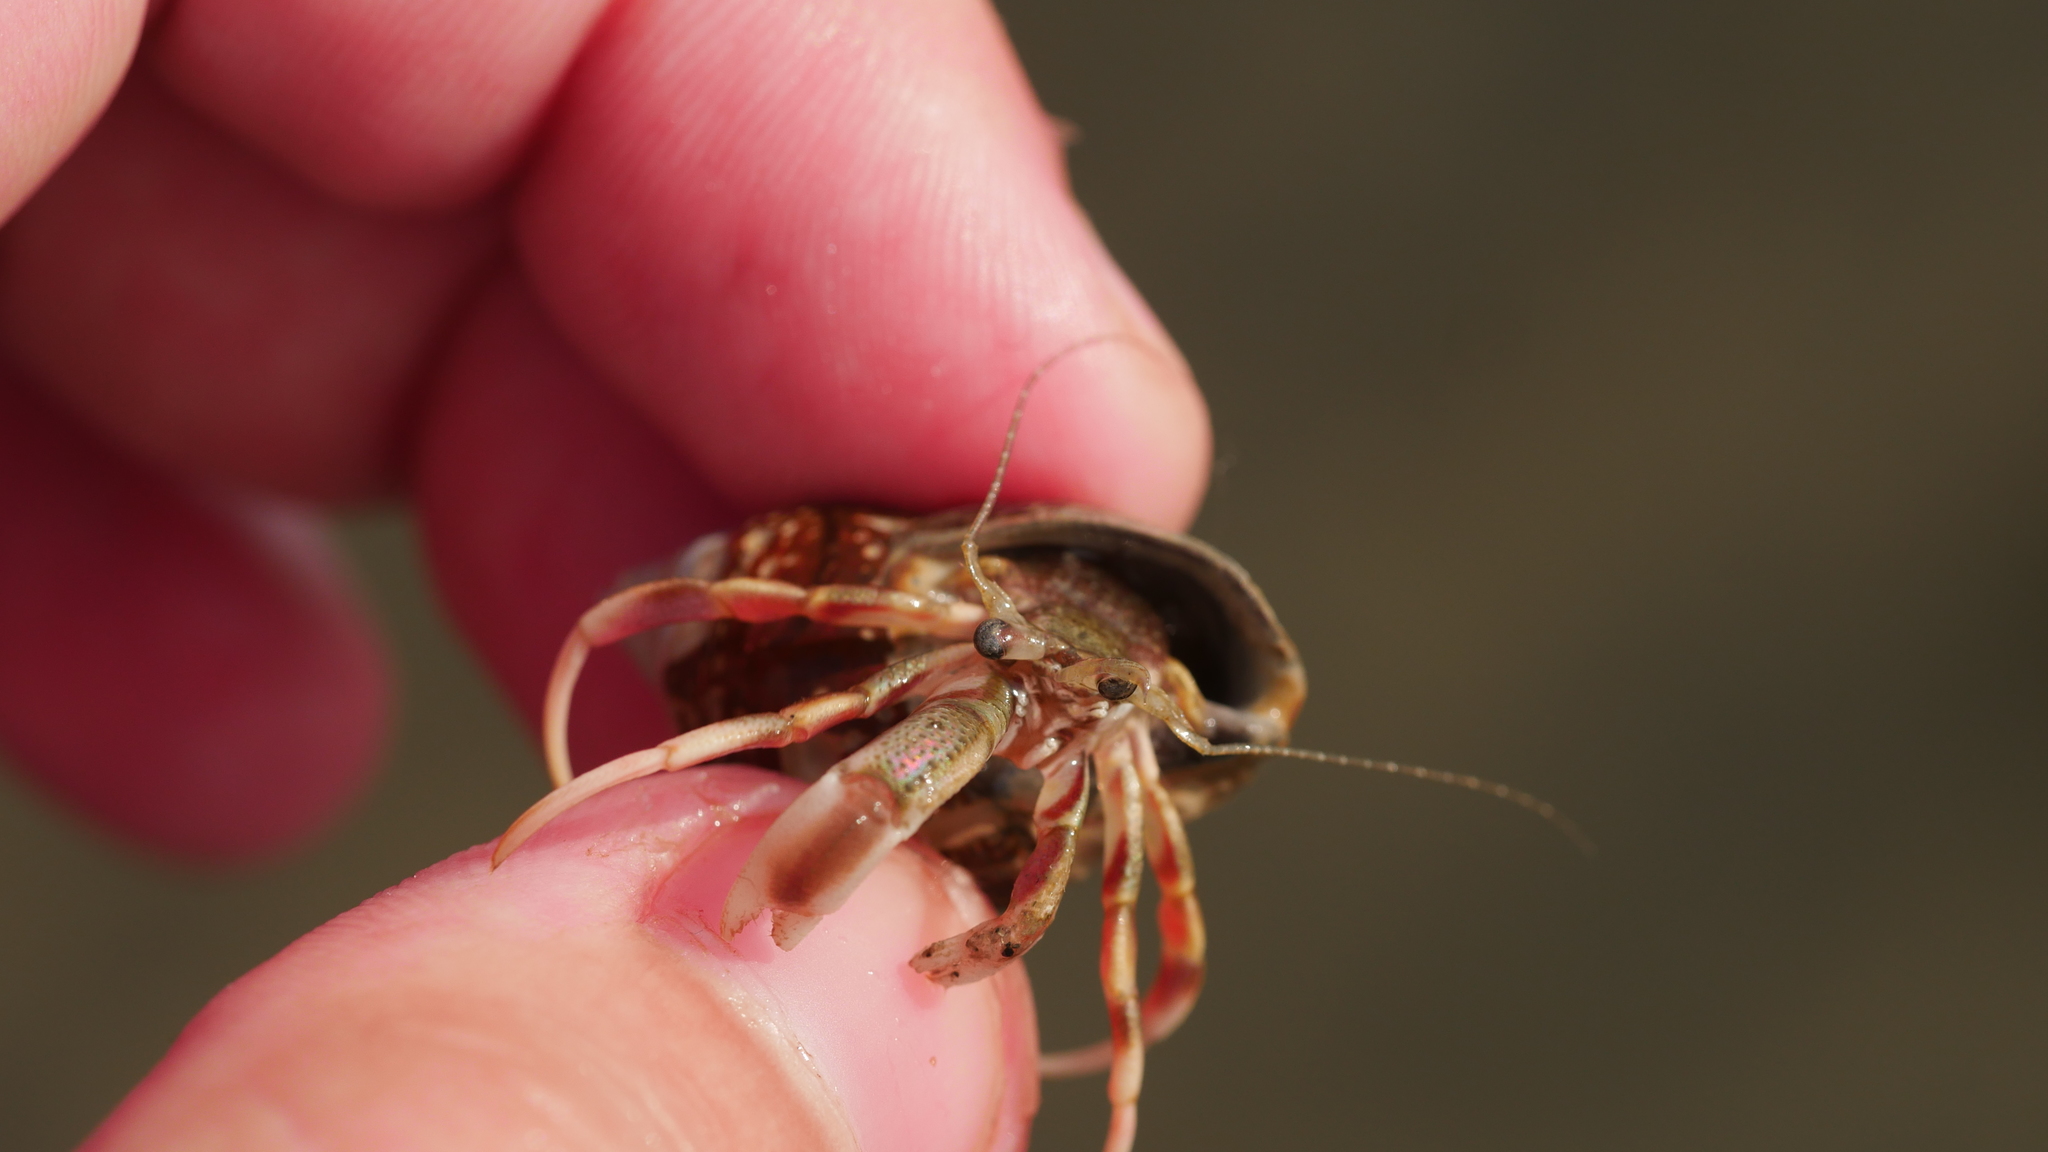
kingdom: Animalia
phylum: Arthropoda
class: Malacostraca
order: Decapoda
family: Paguridae
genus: Pagurus
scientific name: Pagurus longicarpus
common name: Long-armed hermit crab
